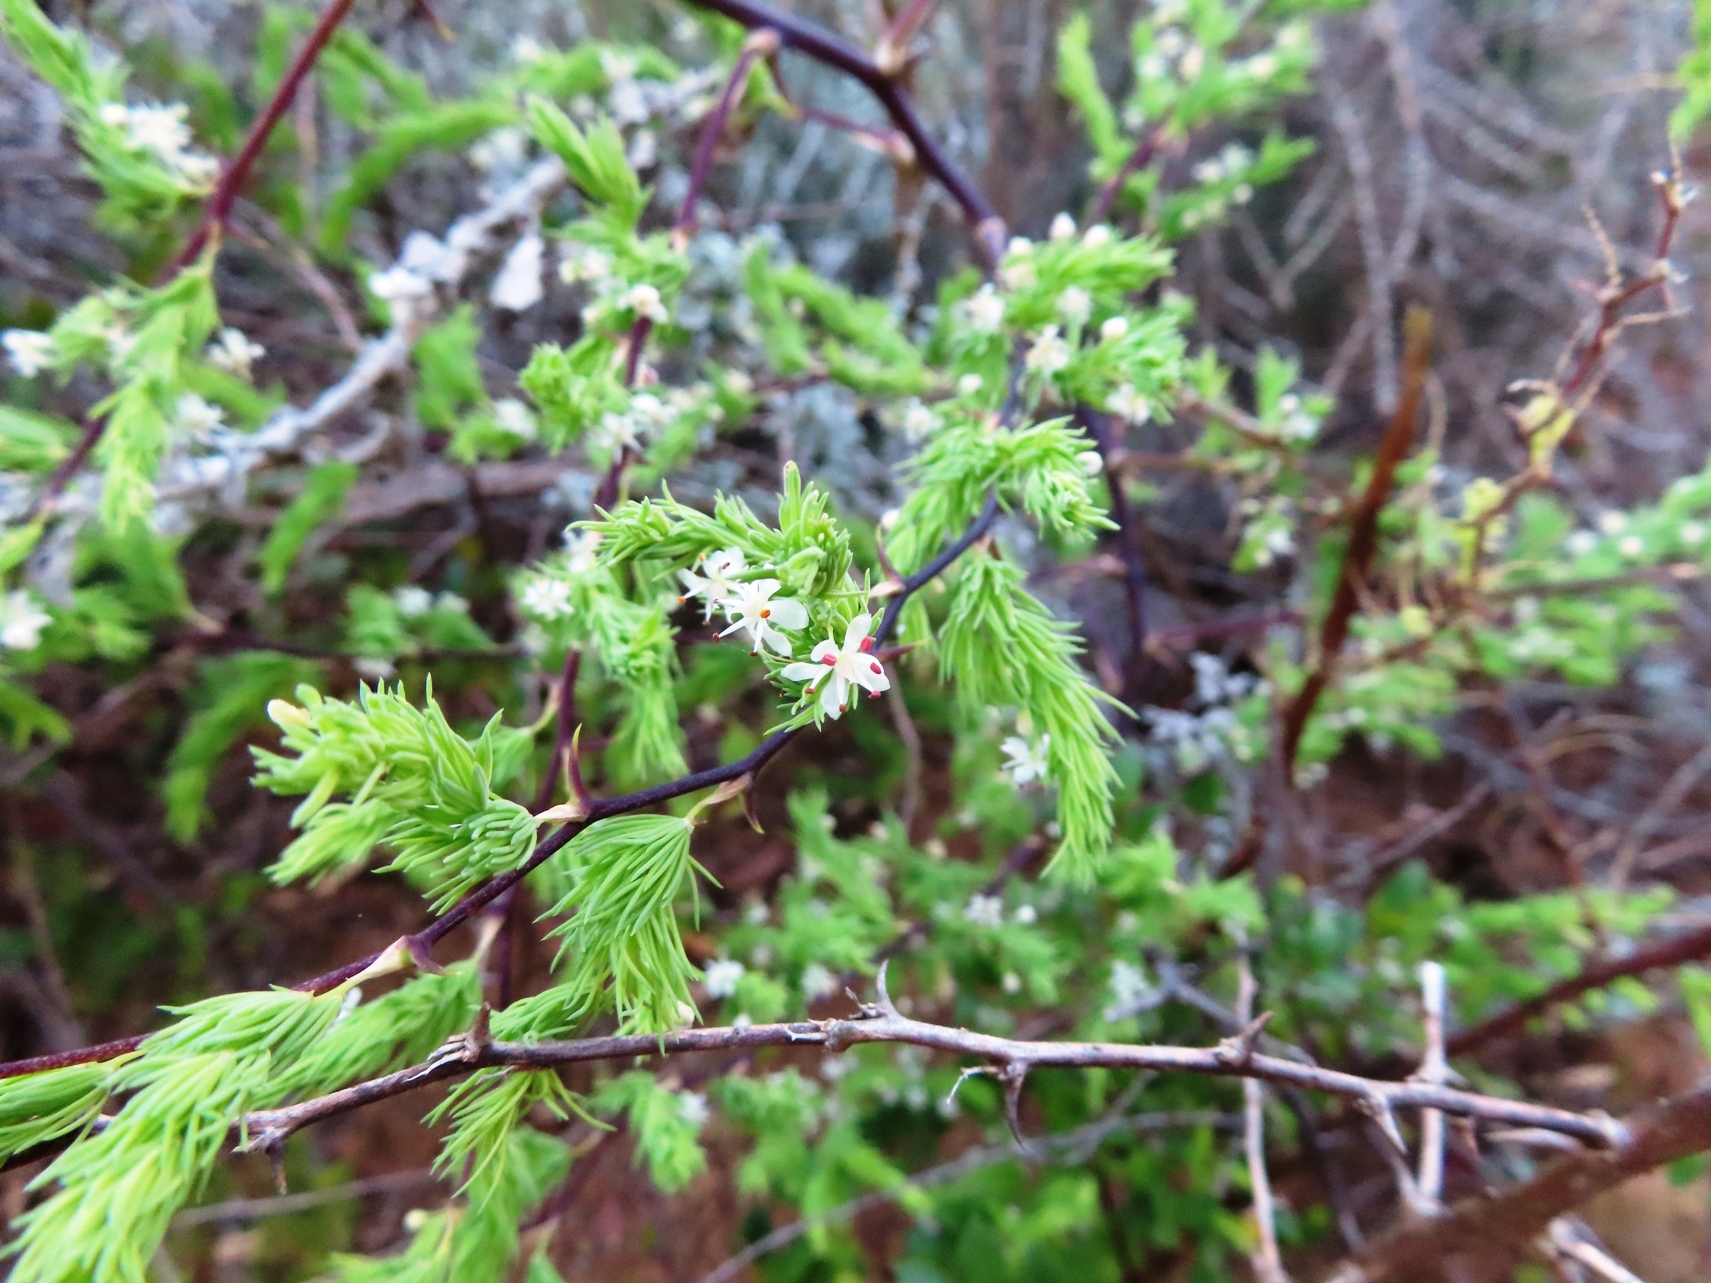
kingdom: Plantae
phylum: Tracheophyta
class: Liliopsida
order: Asparagales
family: Asparagaceae
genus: Asparagus
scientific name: Asparagus rubicundus
